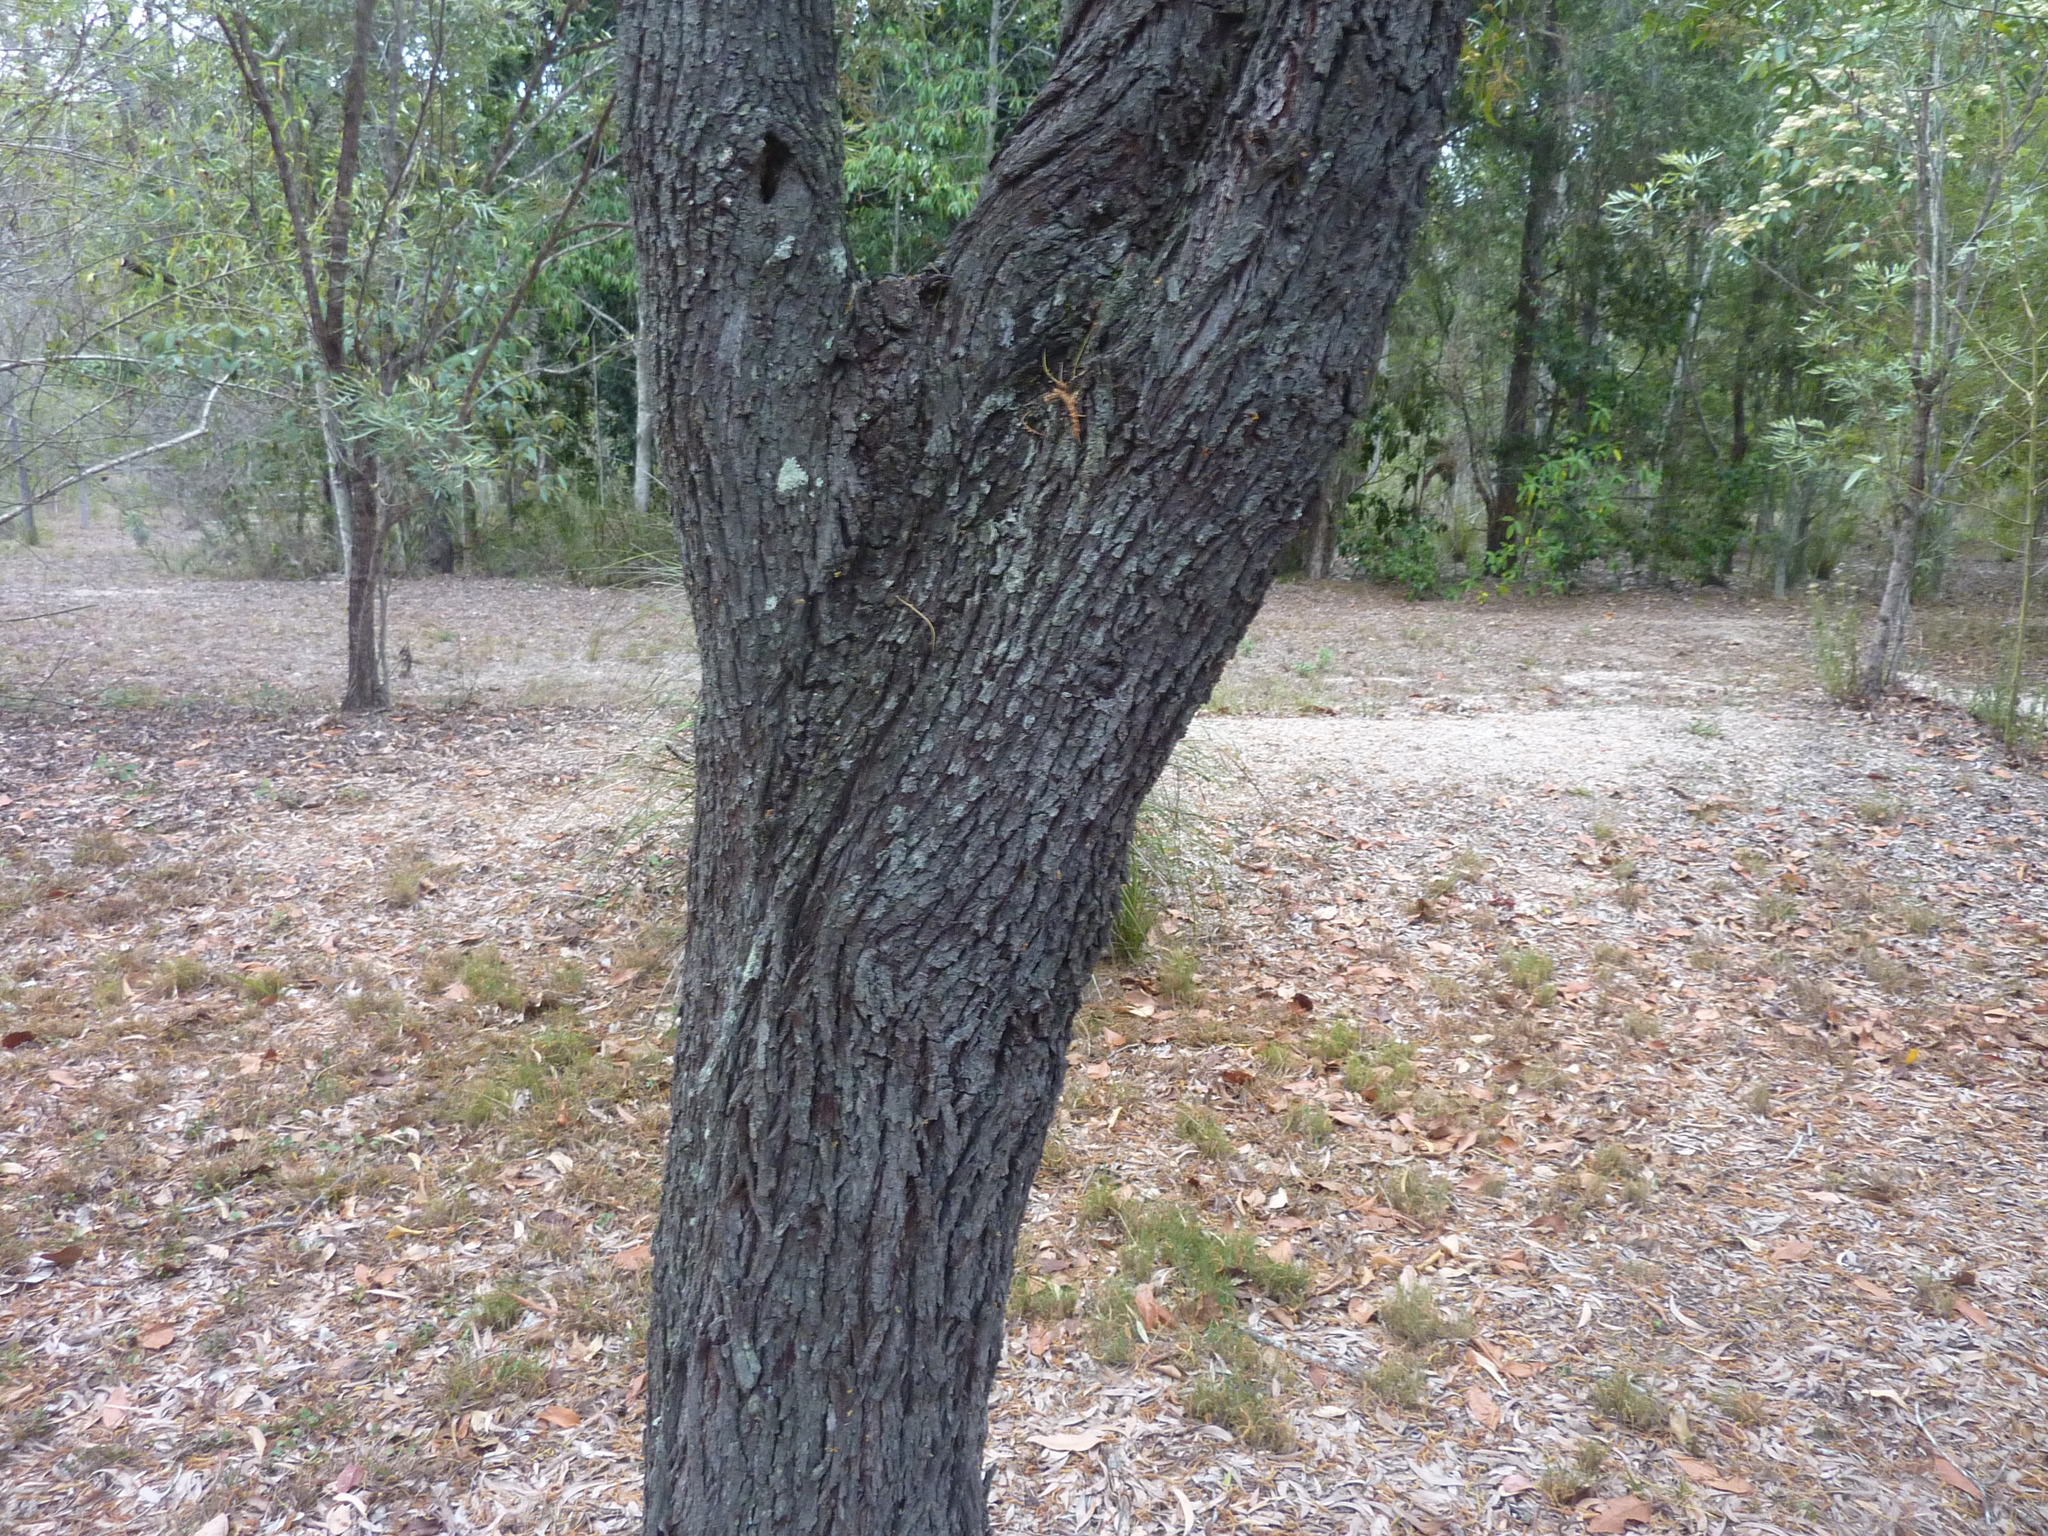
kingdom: Plantae
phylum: Tracheophyta
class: Magnoliopsida
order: Fabales
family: Fabaceae
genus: Acacia
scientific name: Acacia disparrima
